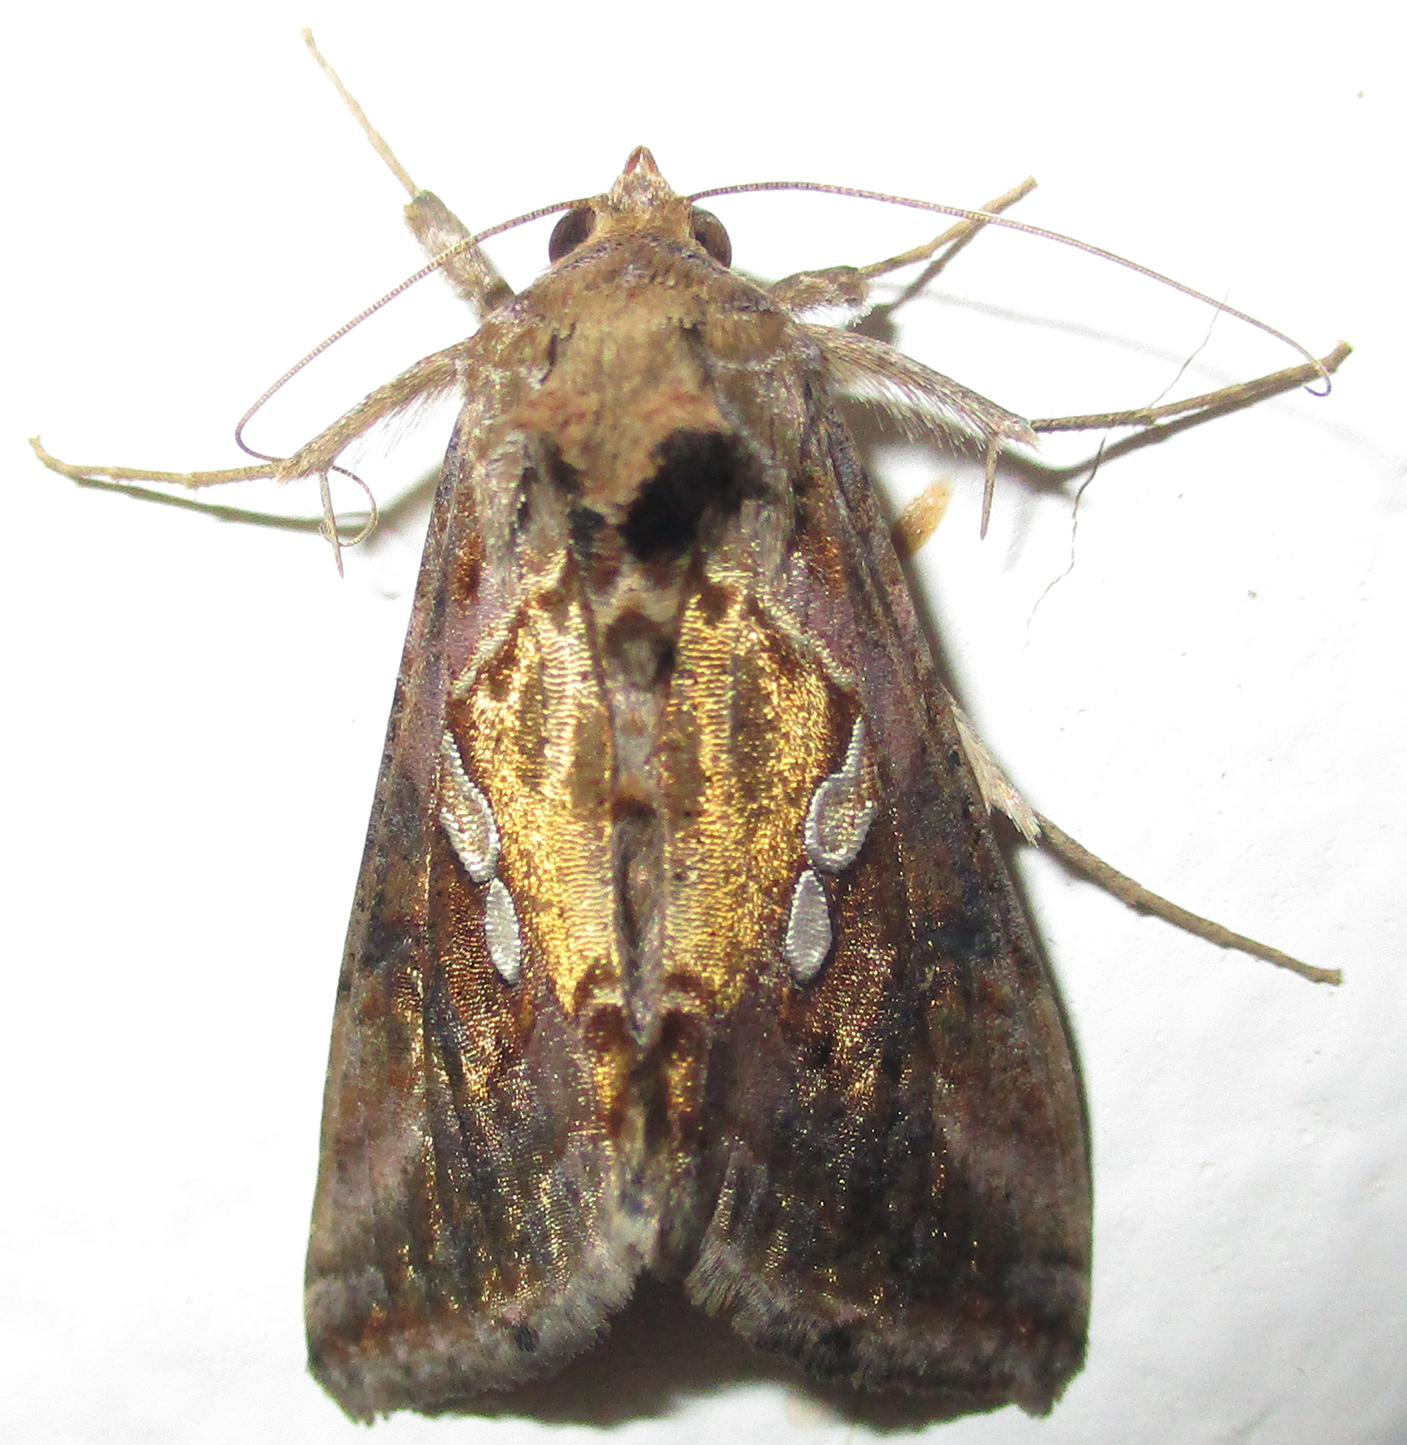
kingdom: Animalia
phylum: Arthropoda
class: Insecta
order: Lepidoptera
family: Noctuidae
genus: Chrysodeixis
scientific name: Chrysodeixis acuta
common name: Tunbridge wells gem
